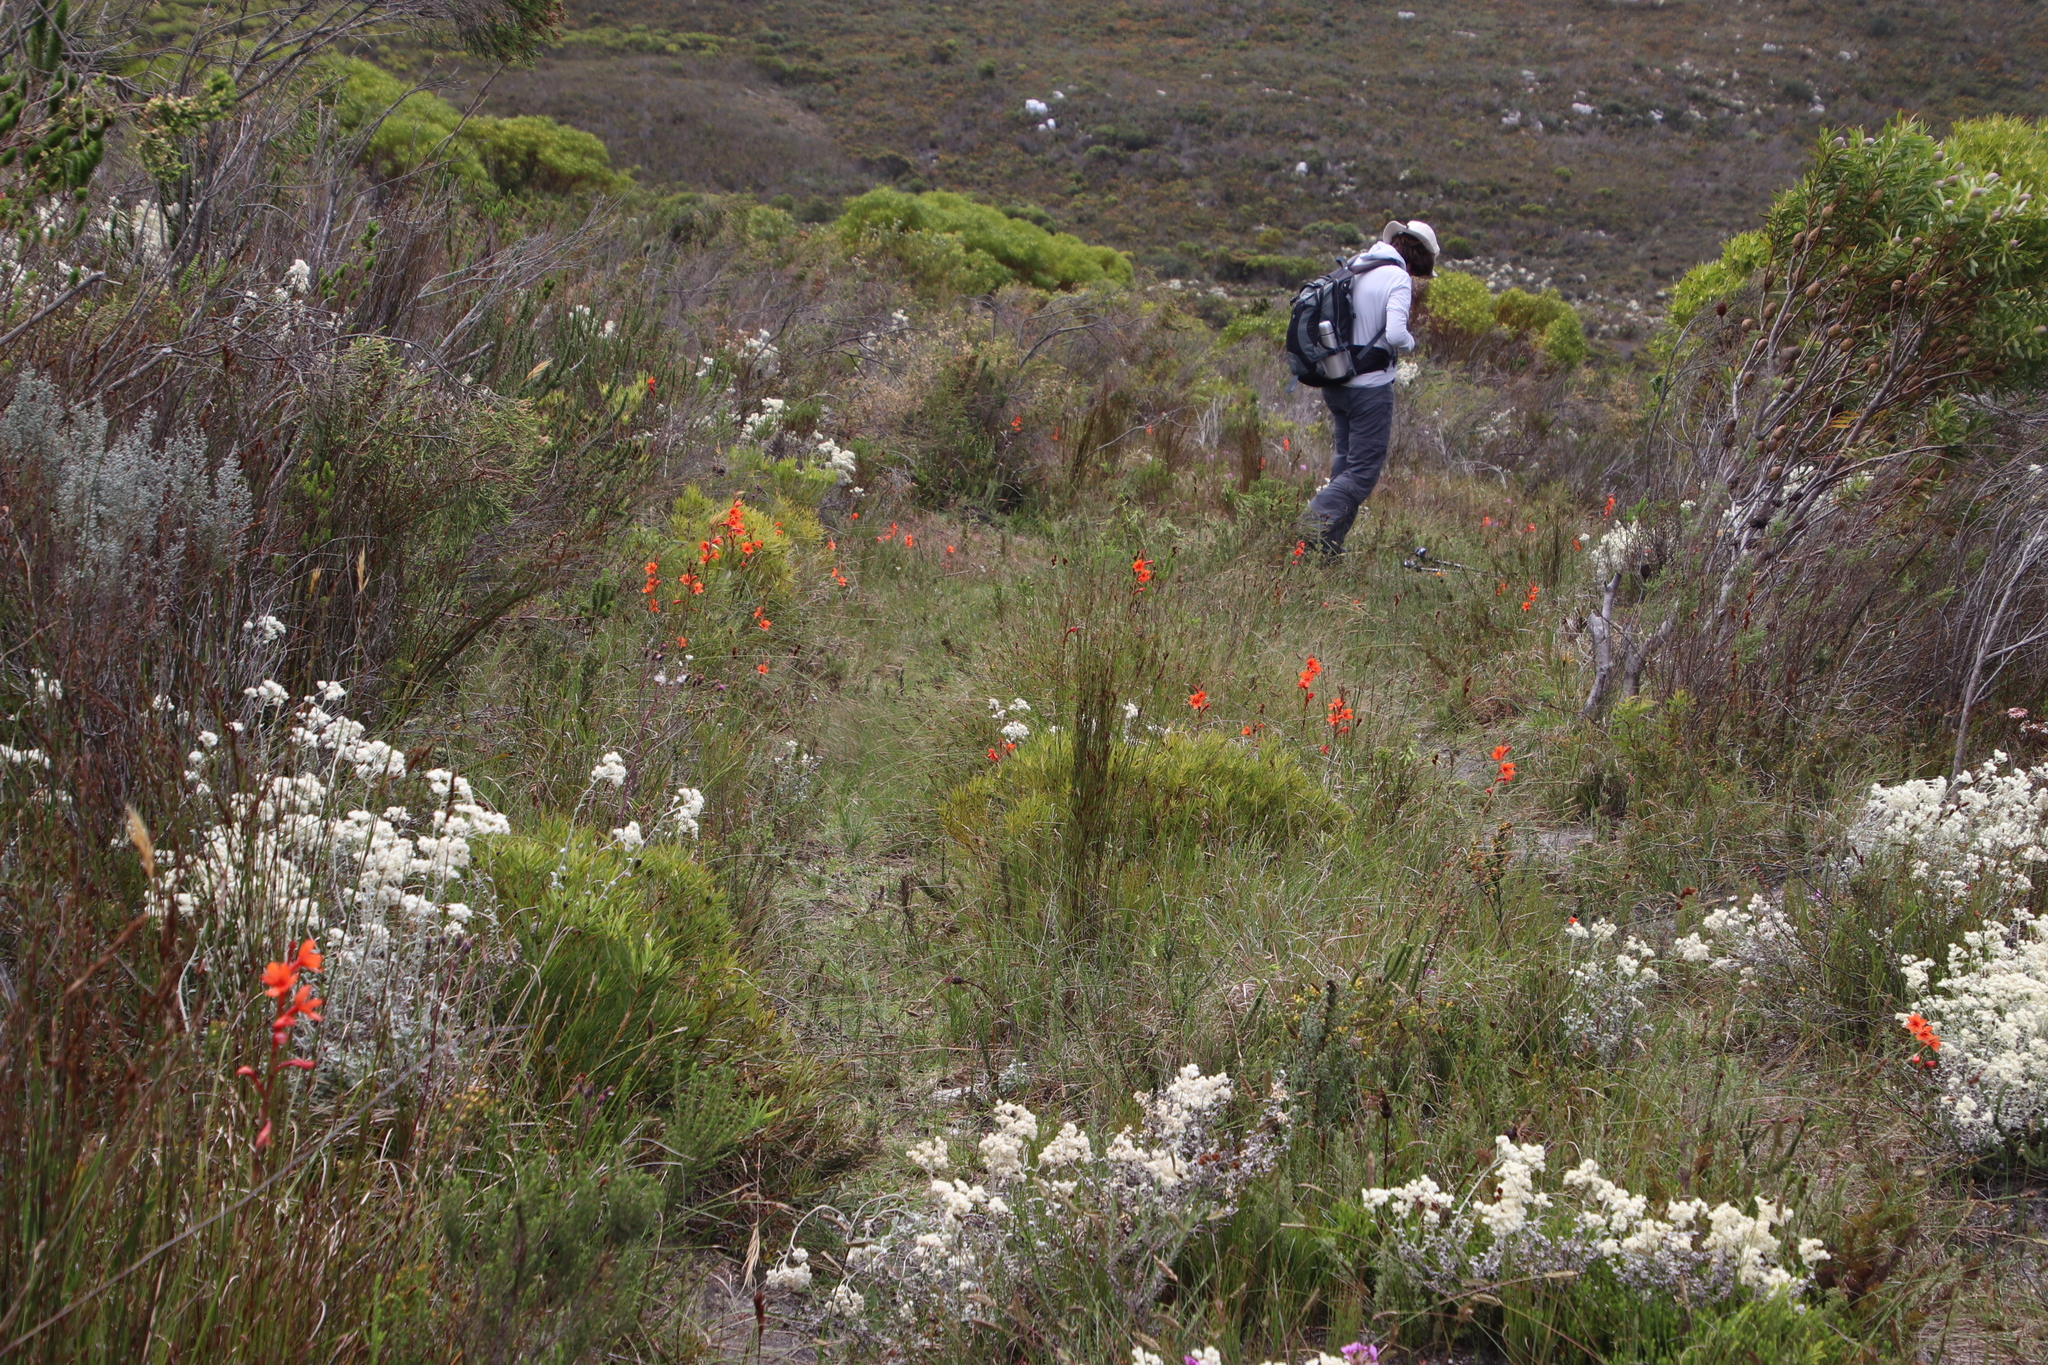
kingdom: Plantae
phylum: Tracheophyta
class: Magnoliopsida
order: Proteales
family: Proteaceae
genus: Leucadendron
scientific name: Leucadendron salignum
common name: Common sunshine conebush
